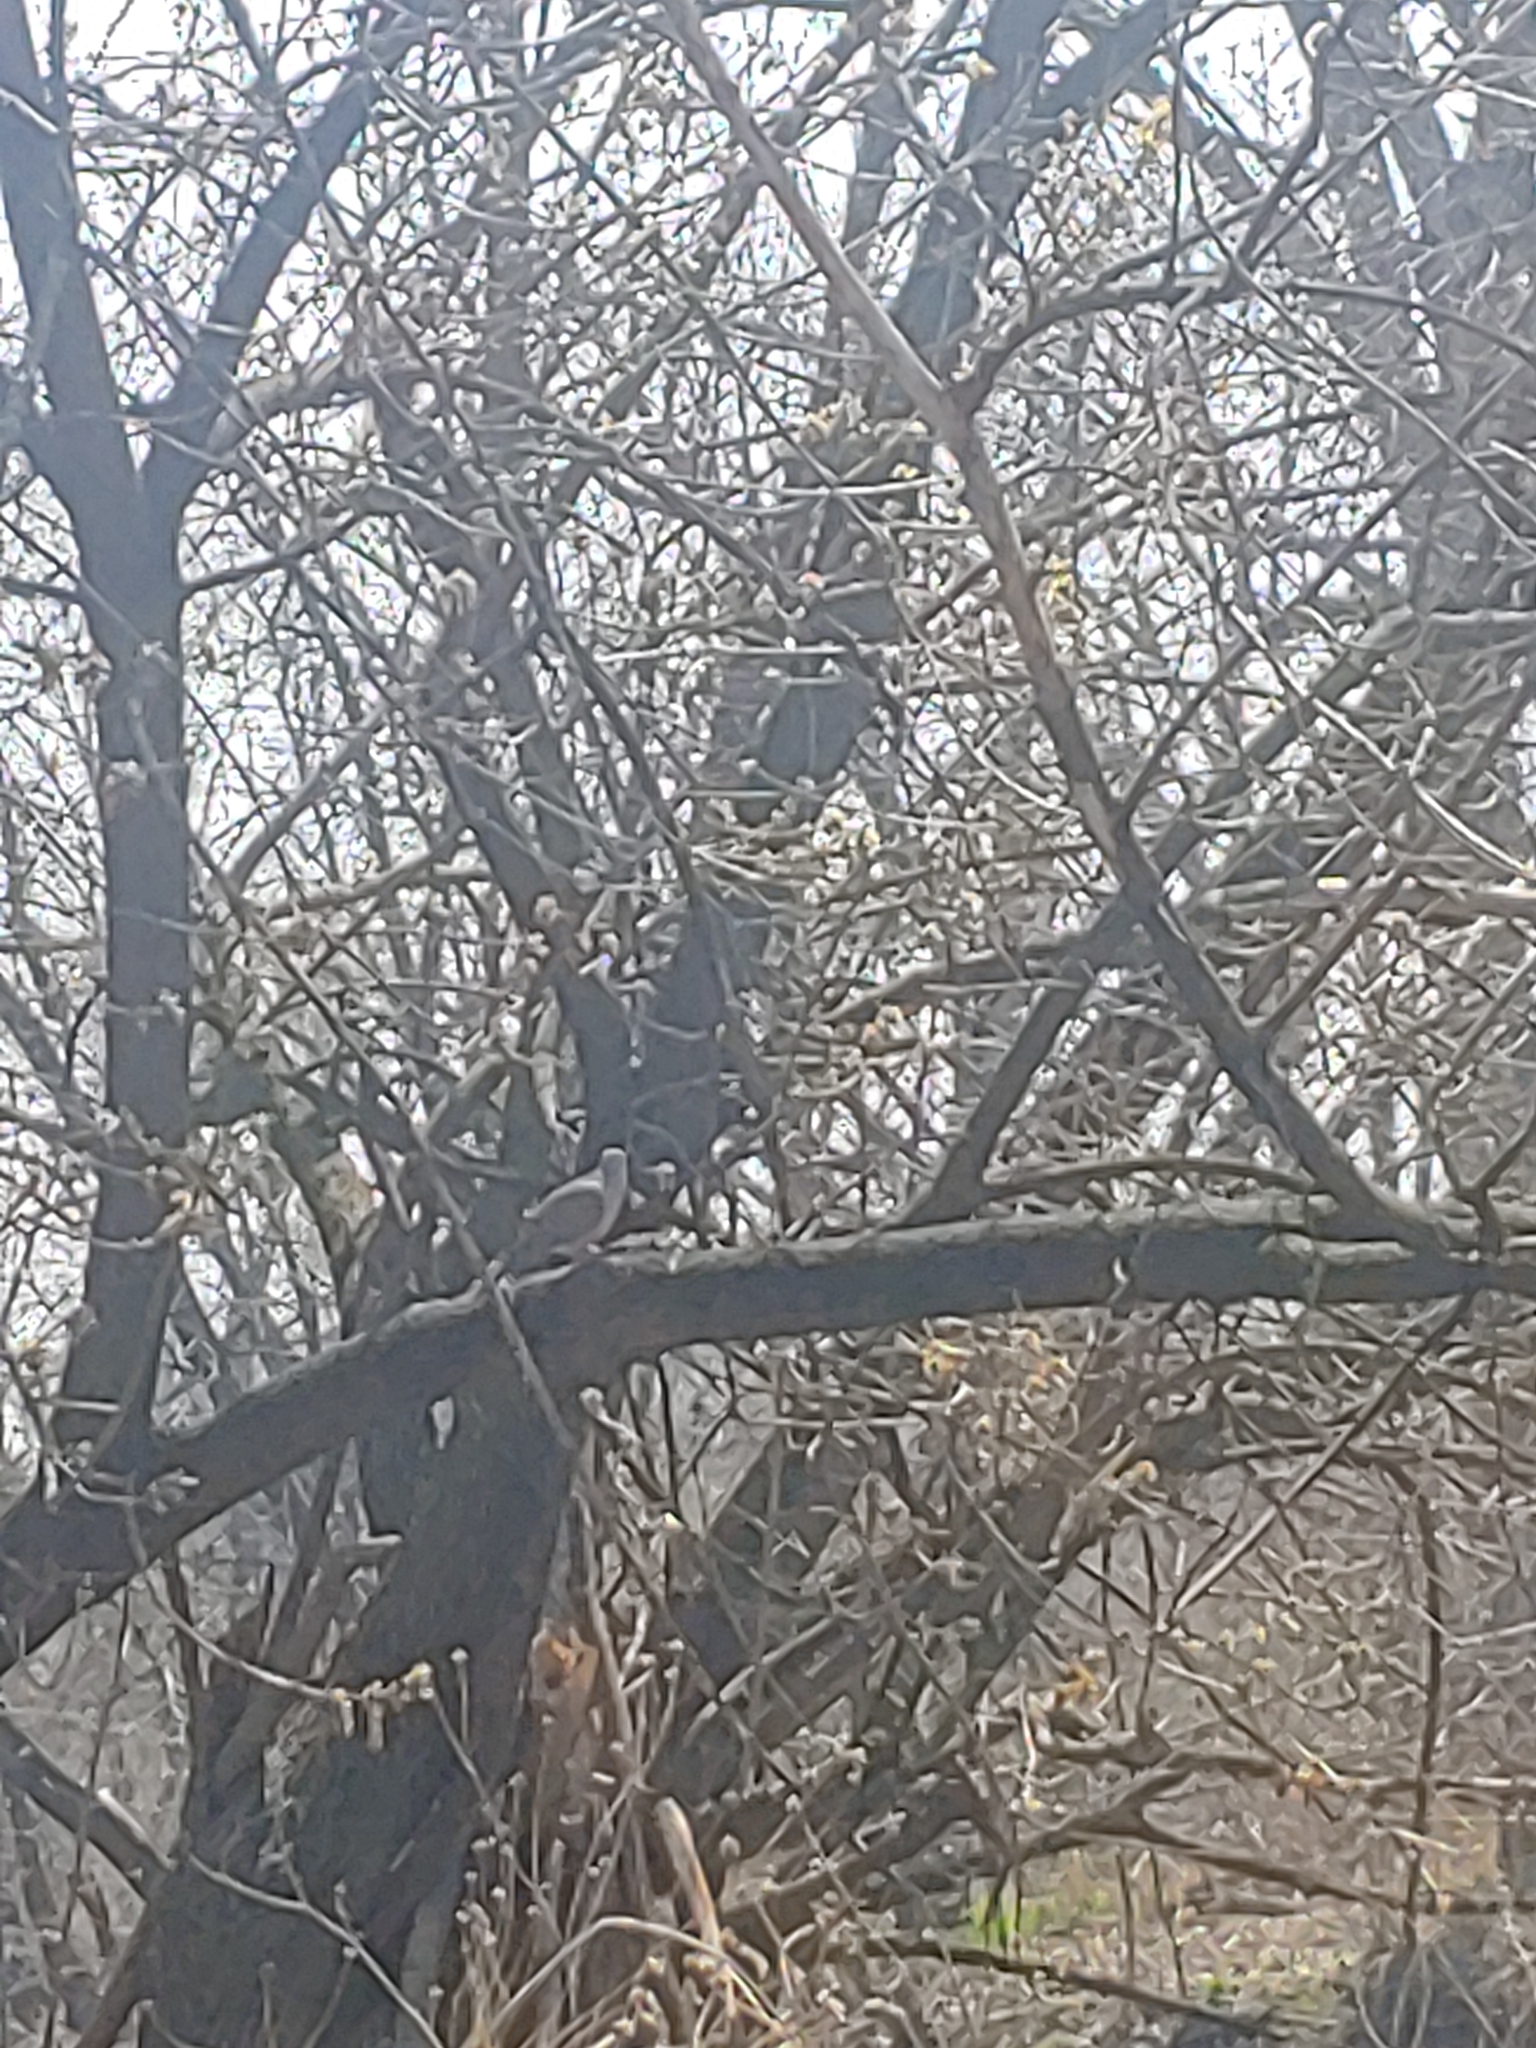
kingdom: Animalia
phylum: Chordata
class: Aves
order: Columbiformes
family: Columbidae
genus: Zenaida
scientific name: Zenaida macroura
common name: Mourning dove
